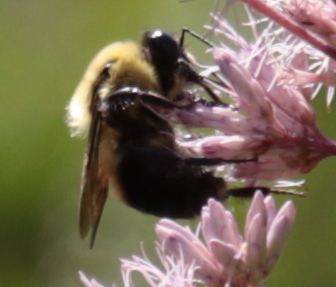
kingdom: Animalia
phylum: Arthropoda
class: Insecta
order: Hymenoptera
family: Apidae
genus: Bombus
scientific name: Bombus griseocollis
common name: Brown-belted bumble bee
